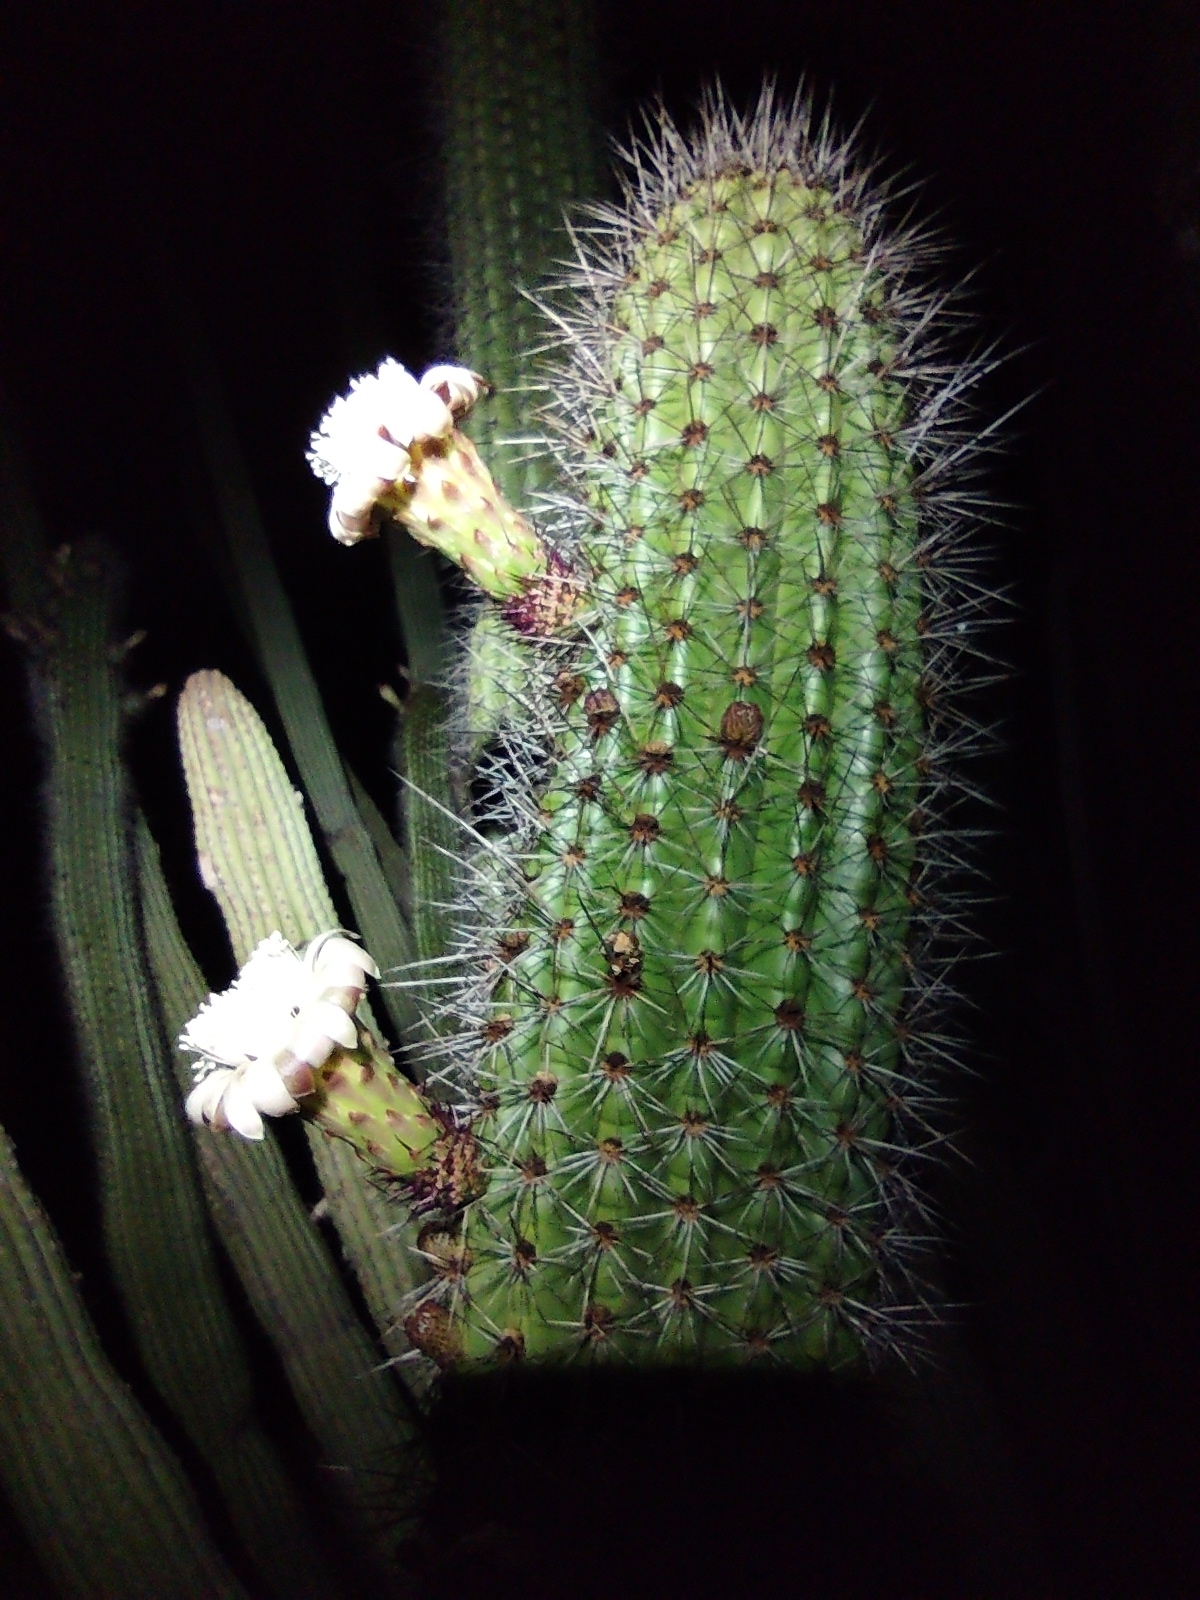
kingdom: Plantae
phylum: Tracheophyta
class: Magnoliopsida
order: Caryophyllales
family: Cactaceae
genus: Stenocereus
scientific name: Stenocereus thurberi
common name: Organ pipe cactus
